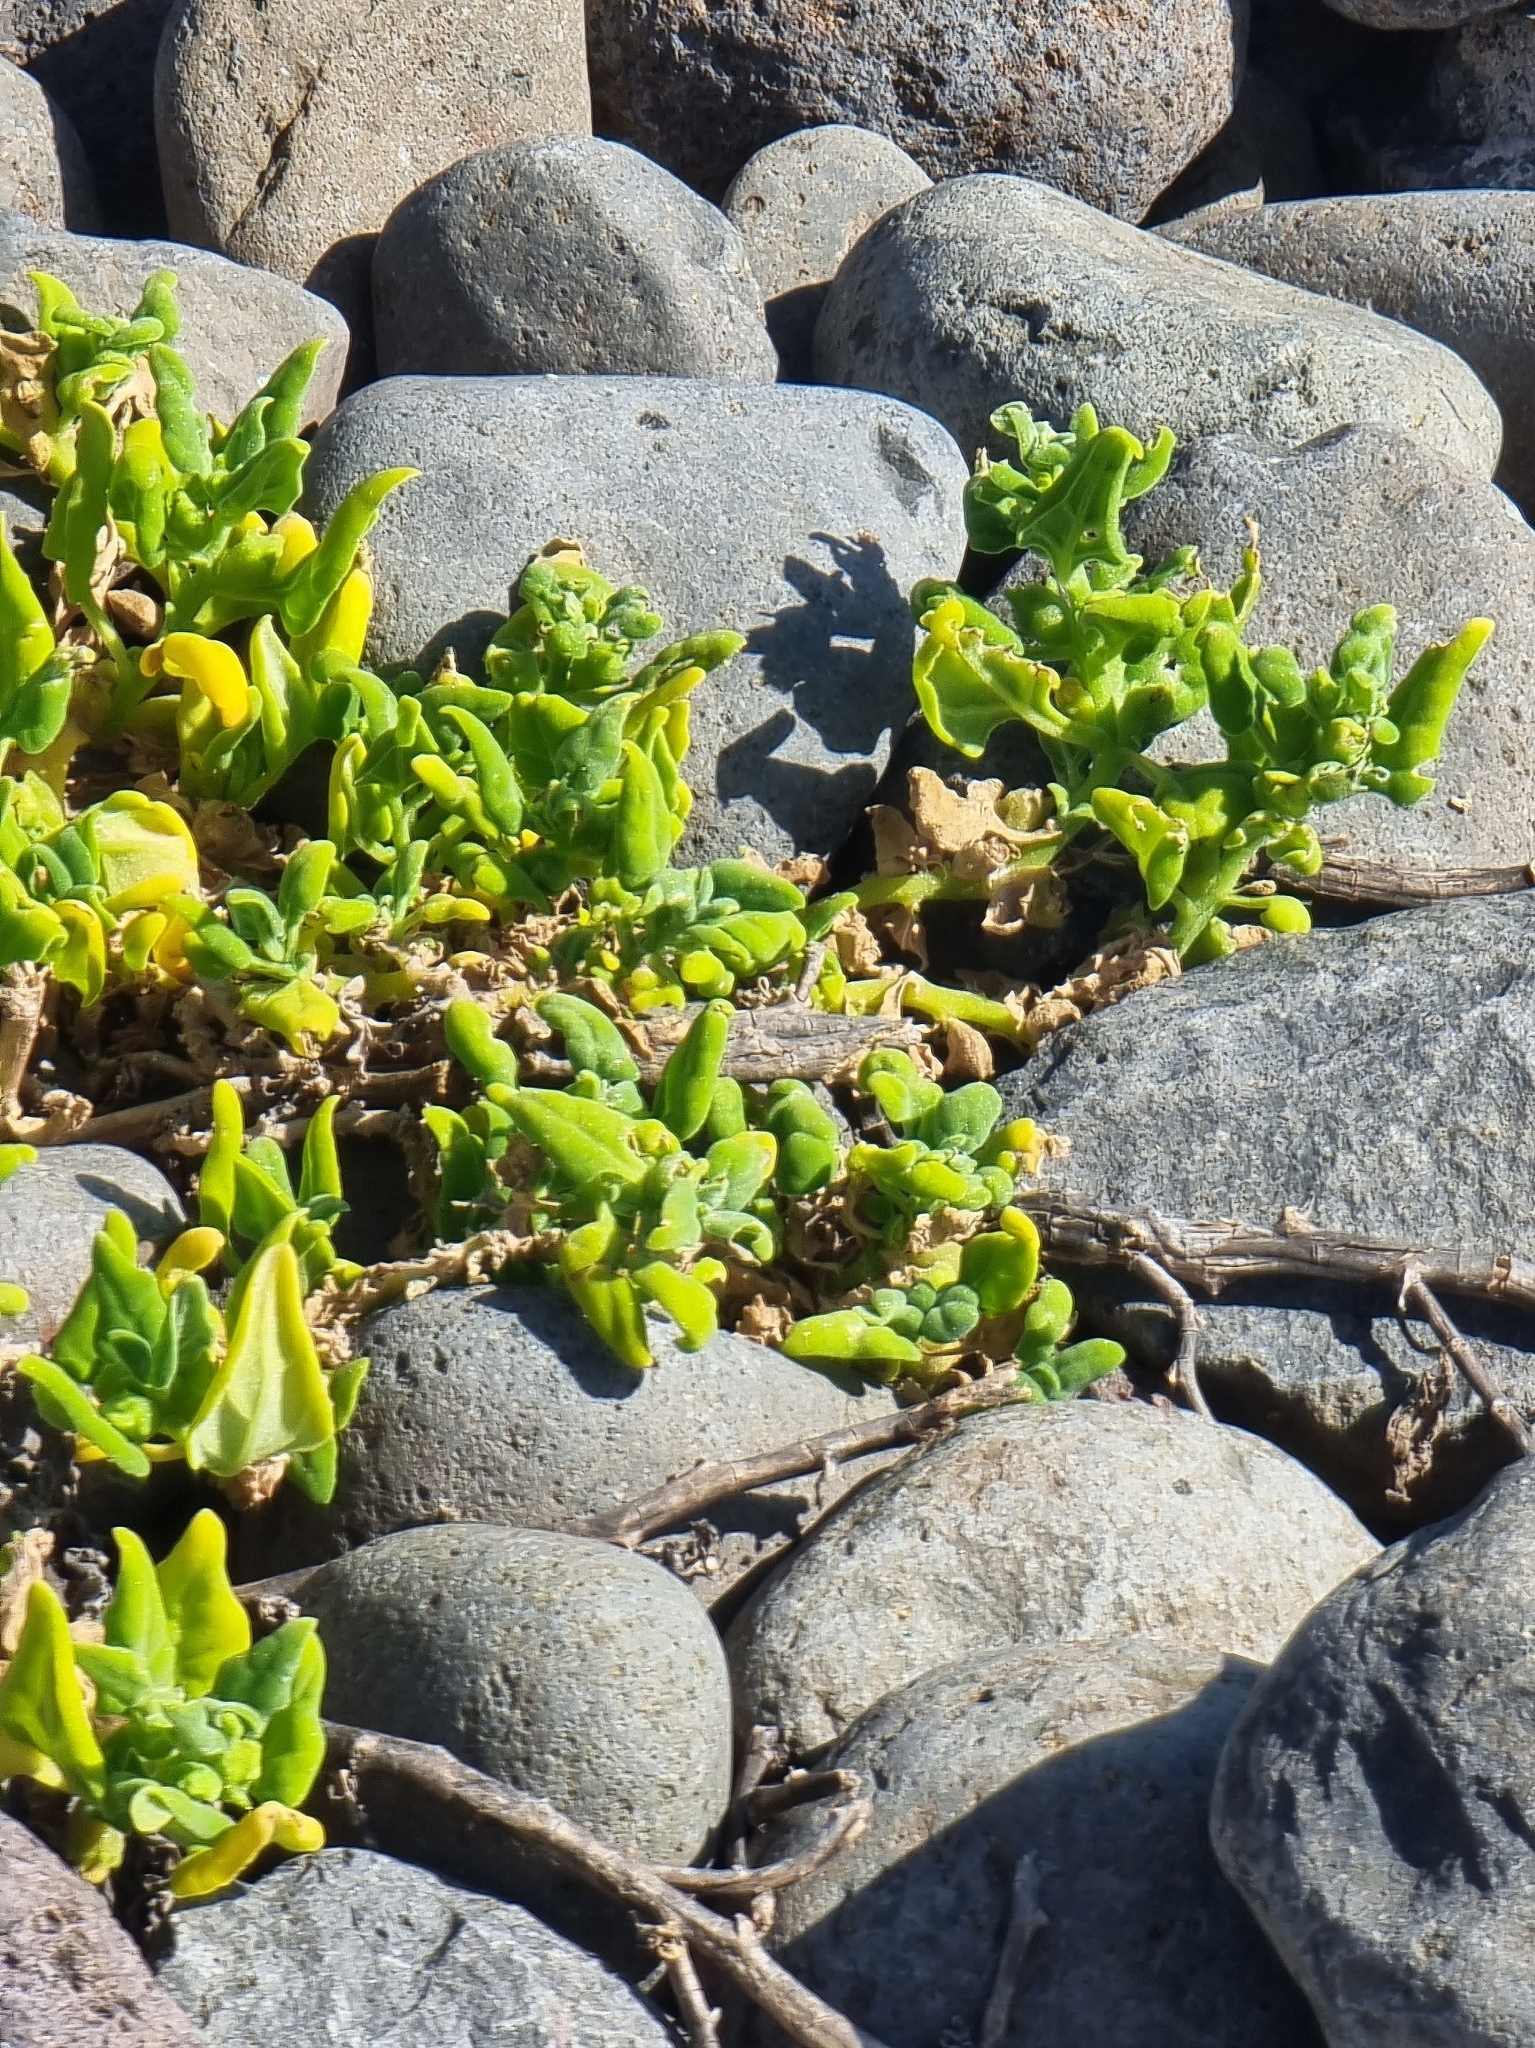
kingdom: Plantae
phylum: Tracheophyta
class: Magnoliopsida
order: Caryophyllales
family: Aizoaceae
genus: Tetragonia
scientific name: Tetragonia tetragonoides
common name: New zealand-spinach
